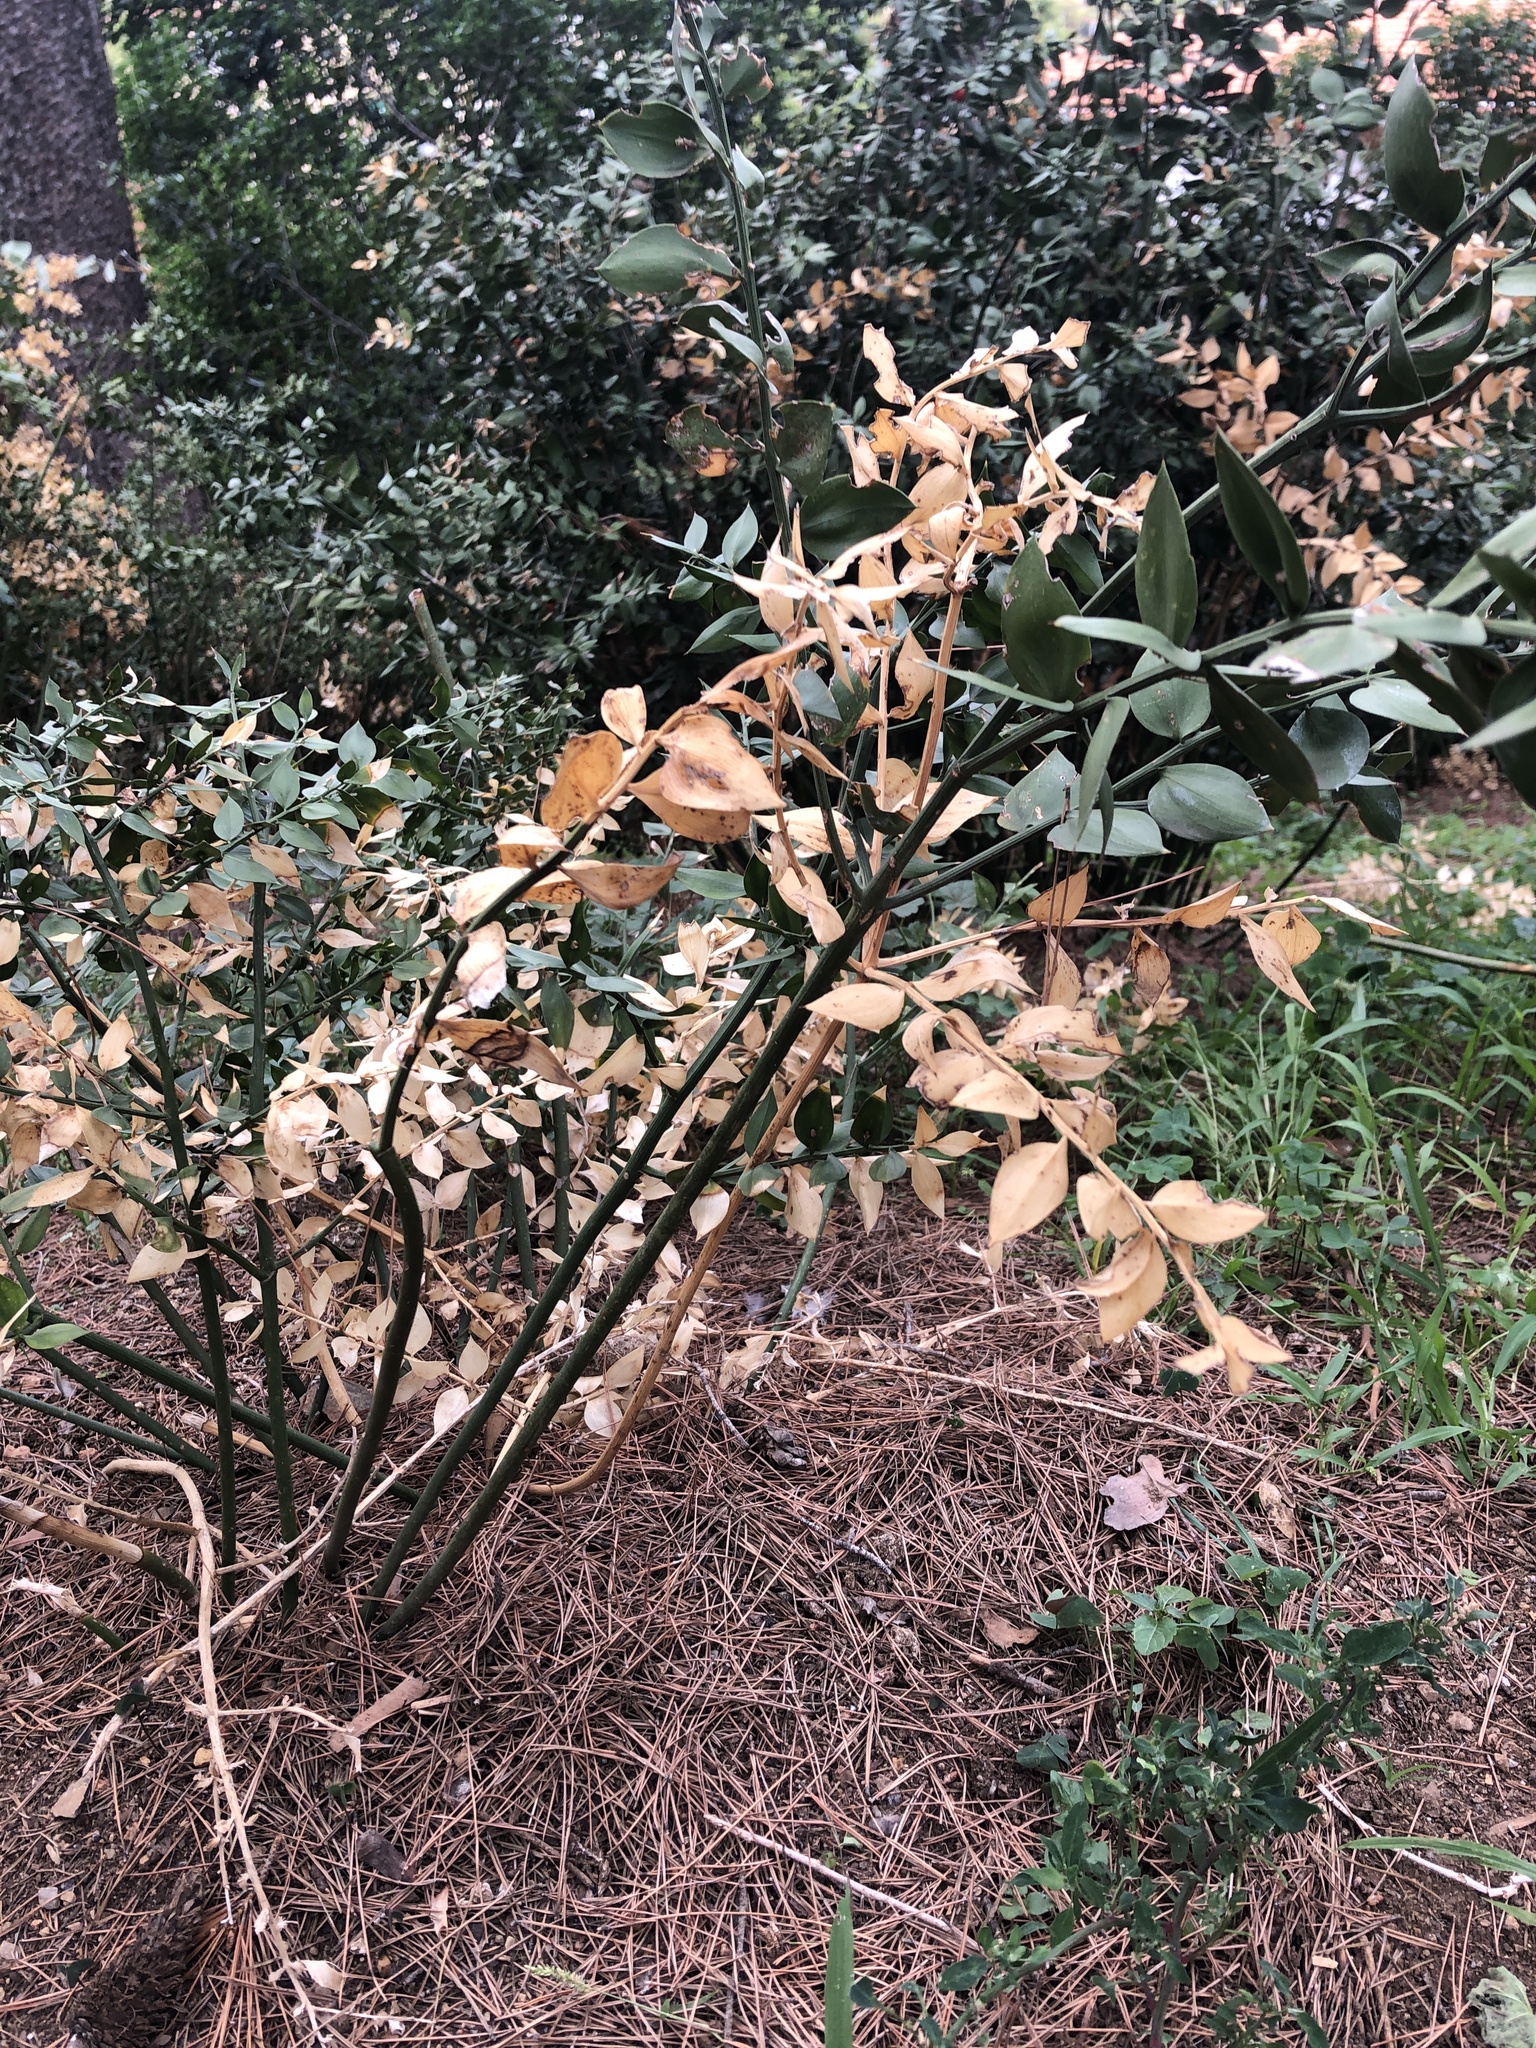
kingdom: Plantae
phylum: Tracheophyta
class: Liliopsida
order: Asparagales
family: Asparagaceae
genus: Ruscus
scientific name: Ruscus aculeatus
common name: Butcher's-broom
